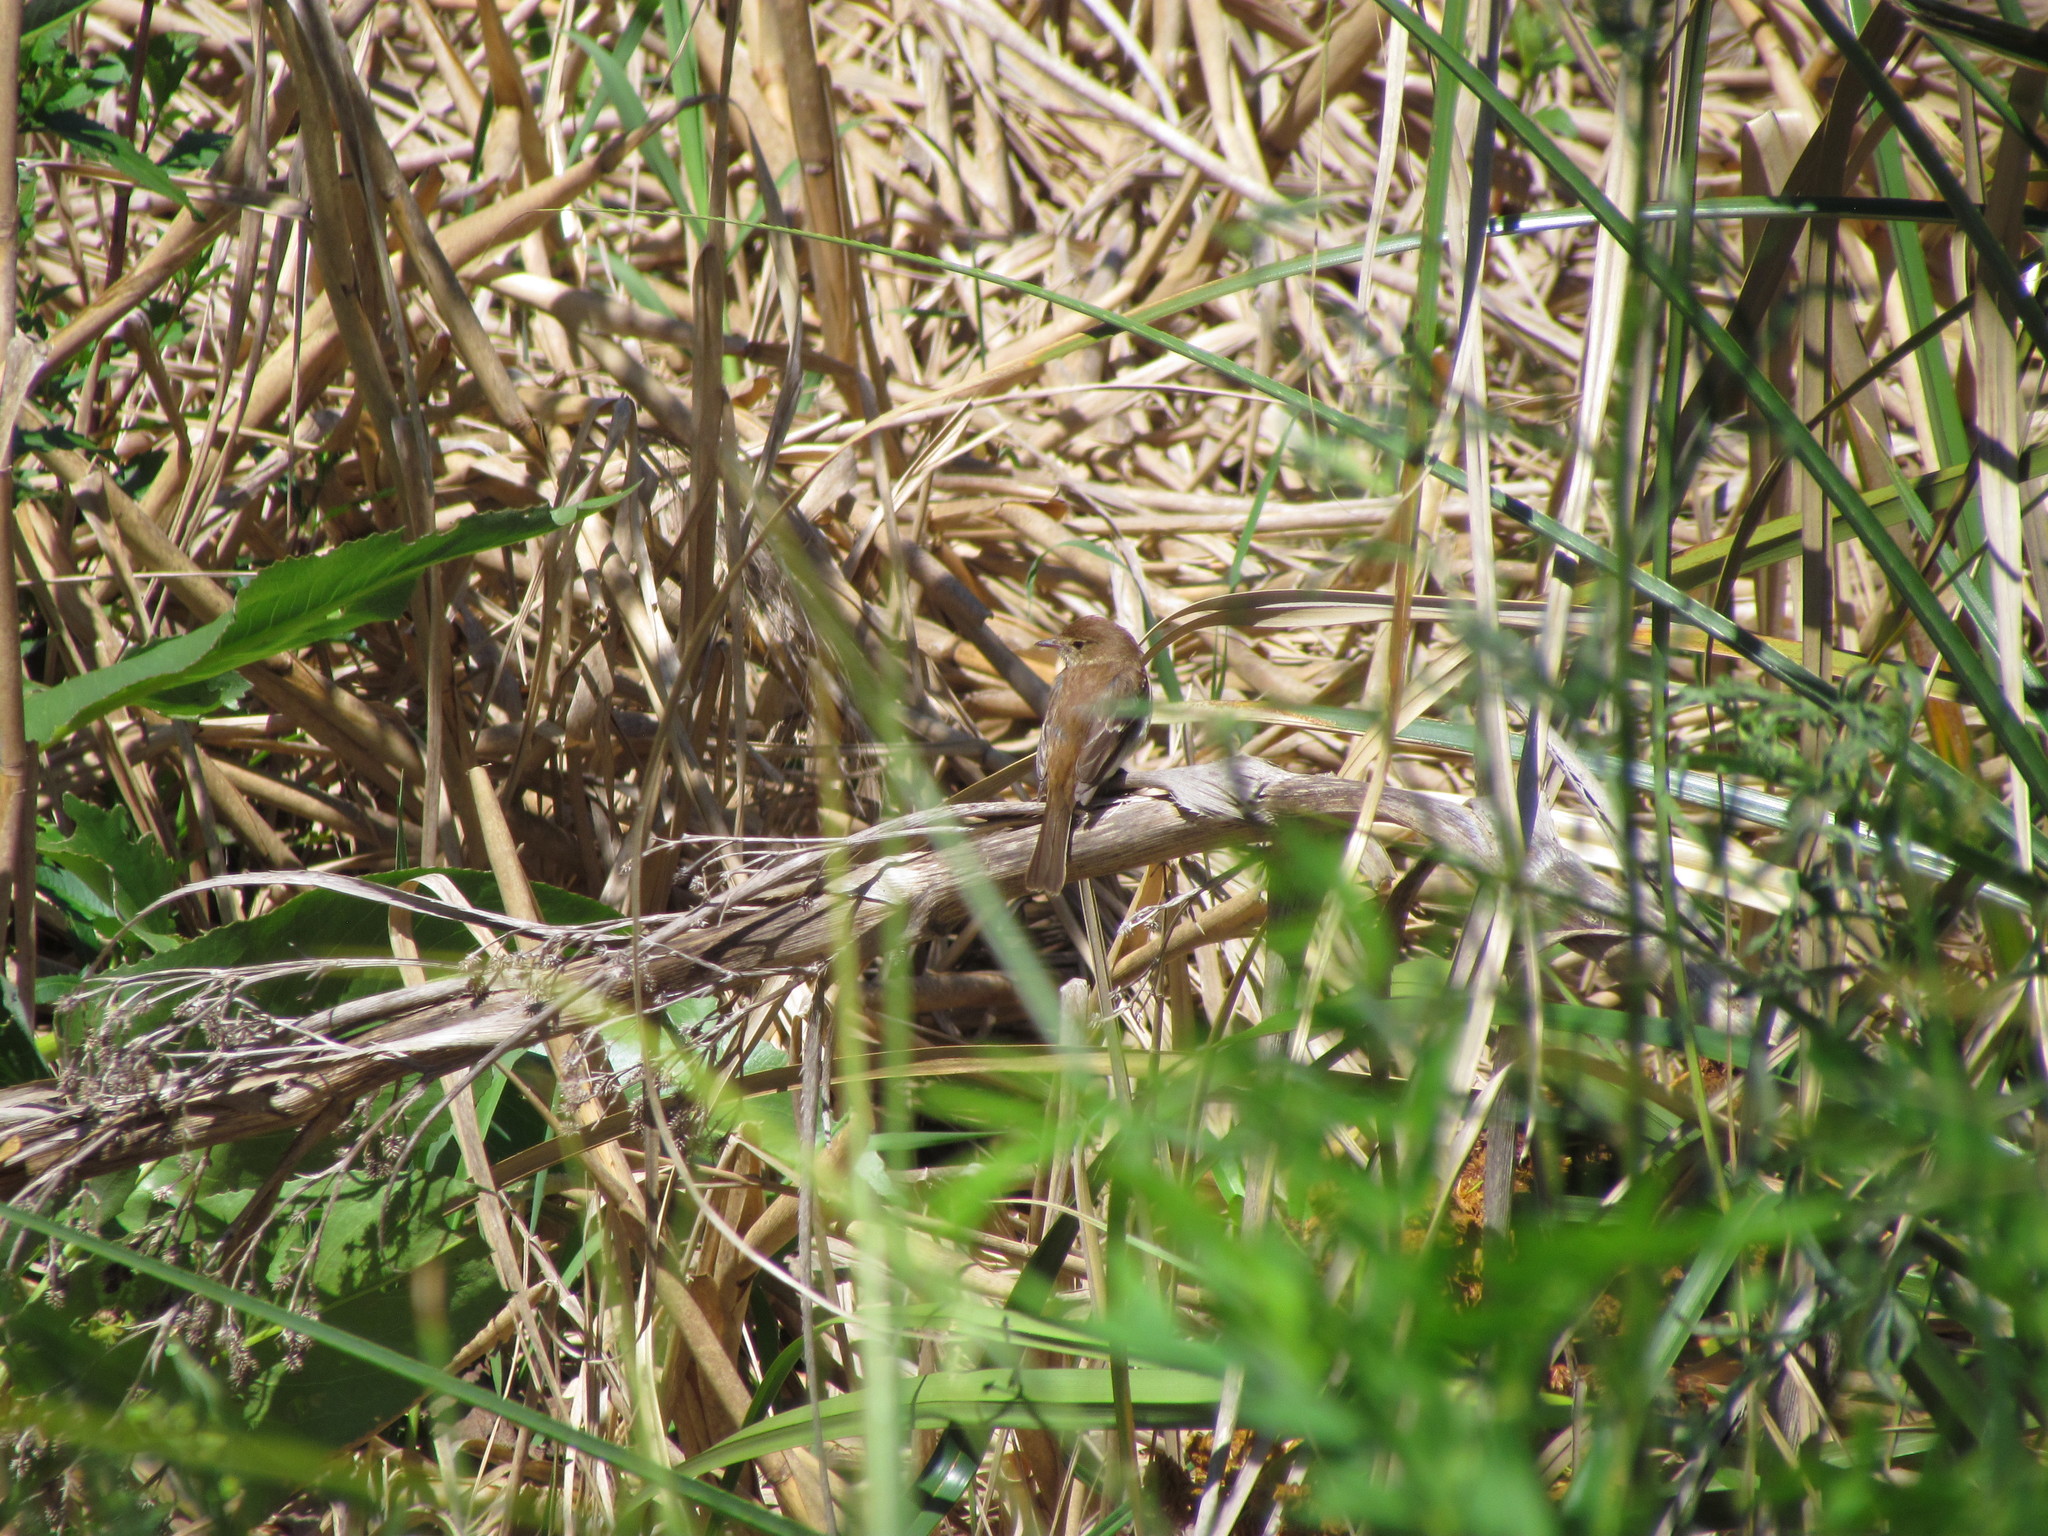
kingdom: Animalia
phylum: Chordata
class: Aves
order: Passeriformes
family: Tyrannidae
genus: Myiophobus
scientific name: Myiophobus fasciatus
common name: Bran-colored flycatcher
